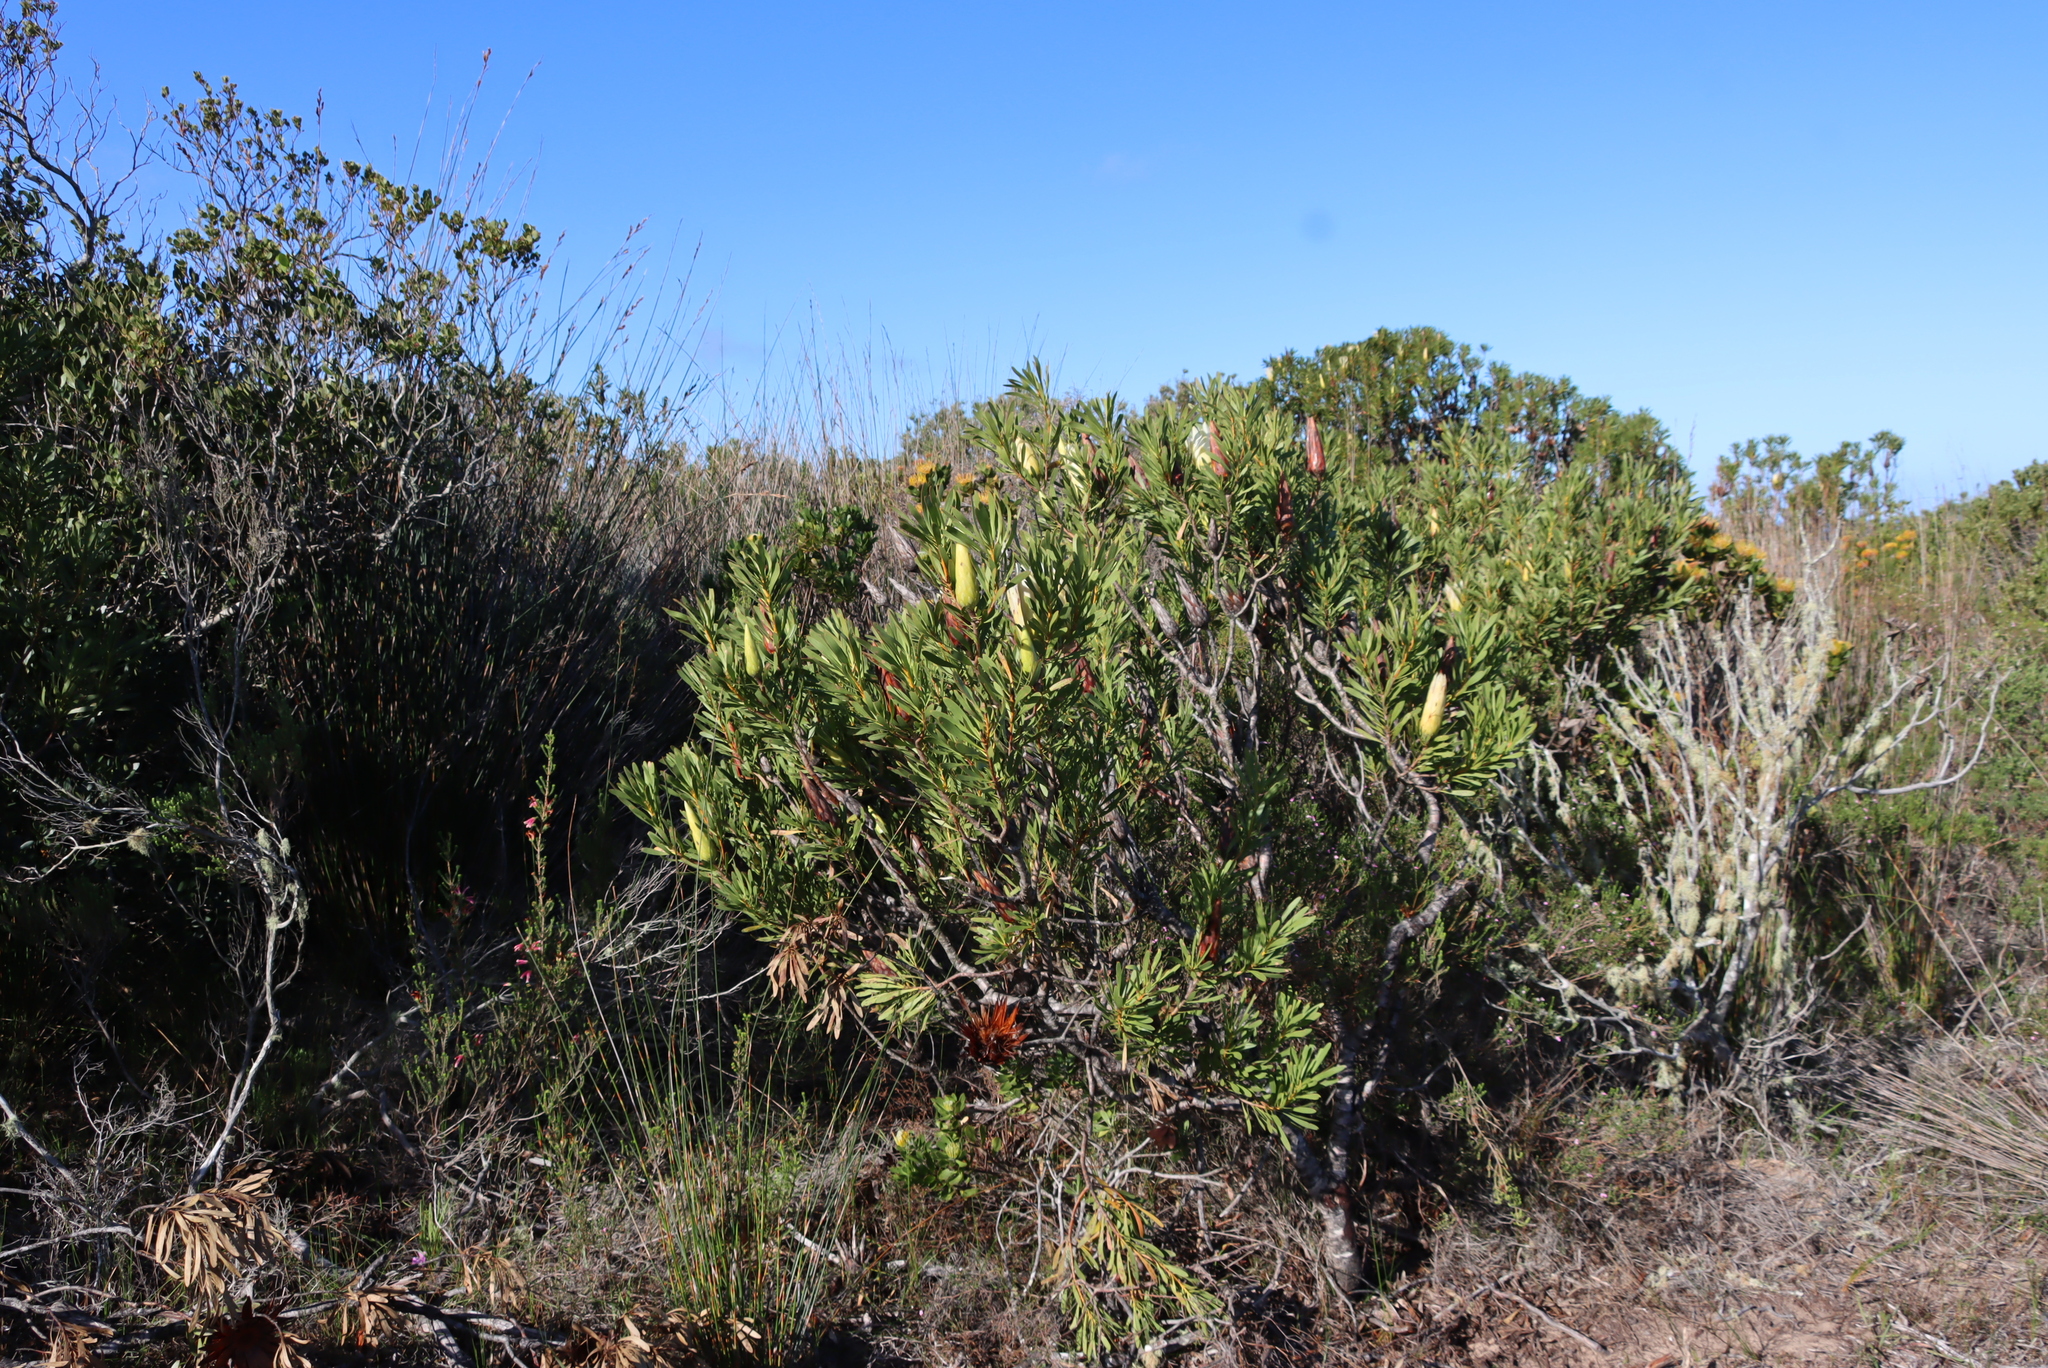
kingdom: Plantae
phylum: Tracheophyta
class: Magnoliopsida
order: Proteales
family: Proteaceae
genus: Protea
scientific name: Protea repens
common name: Sugarbush
